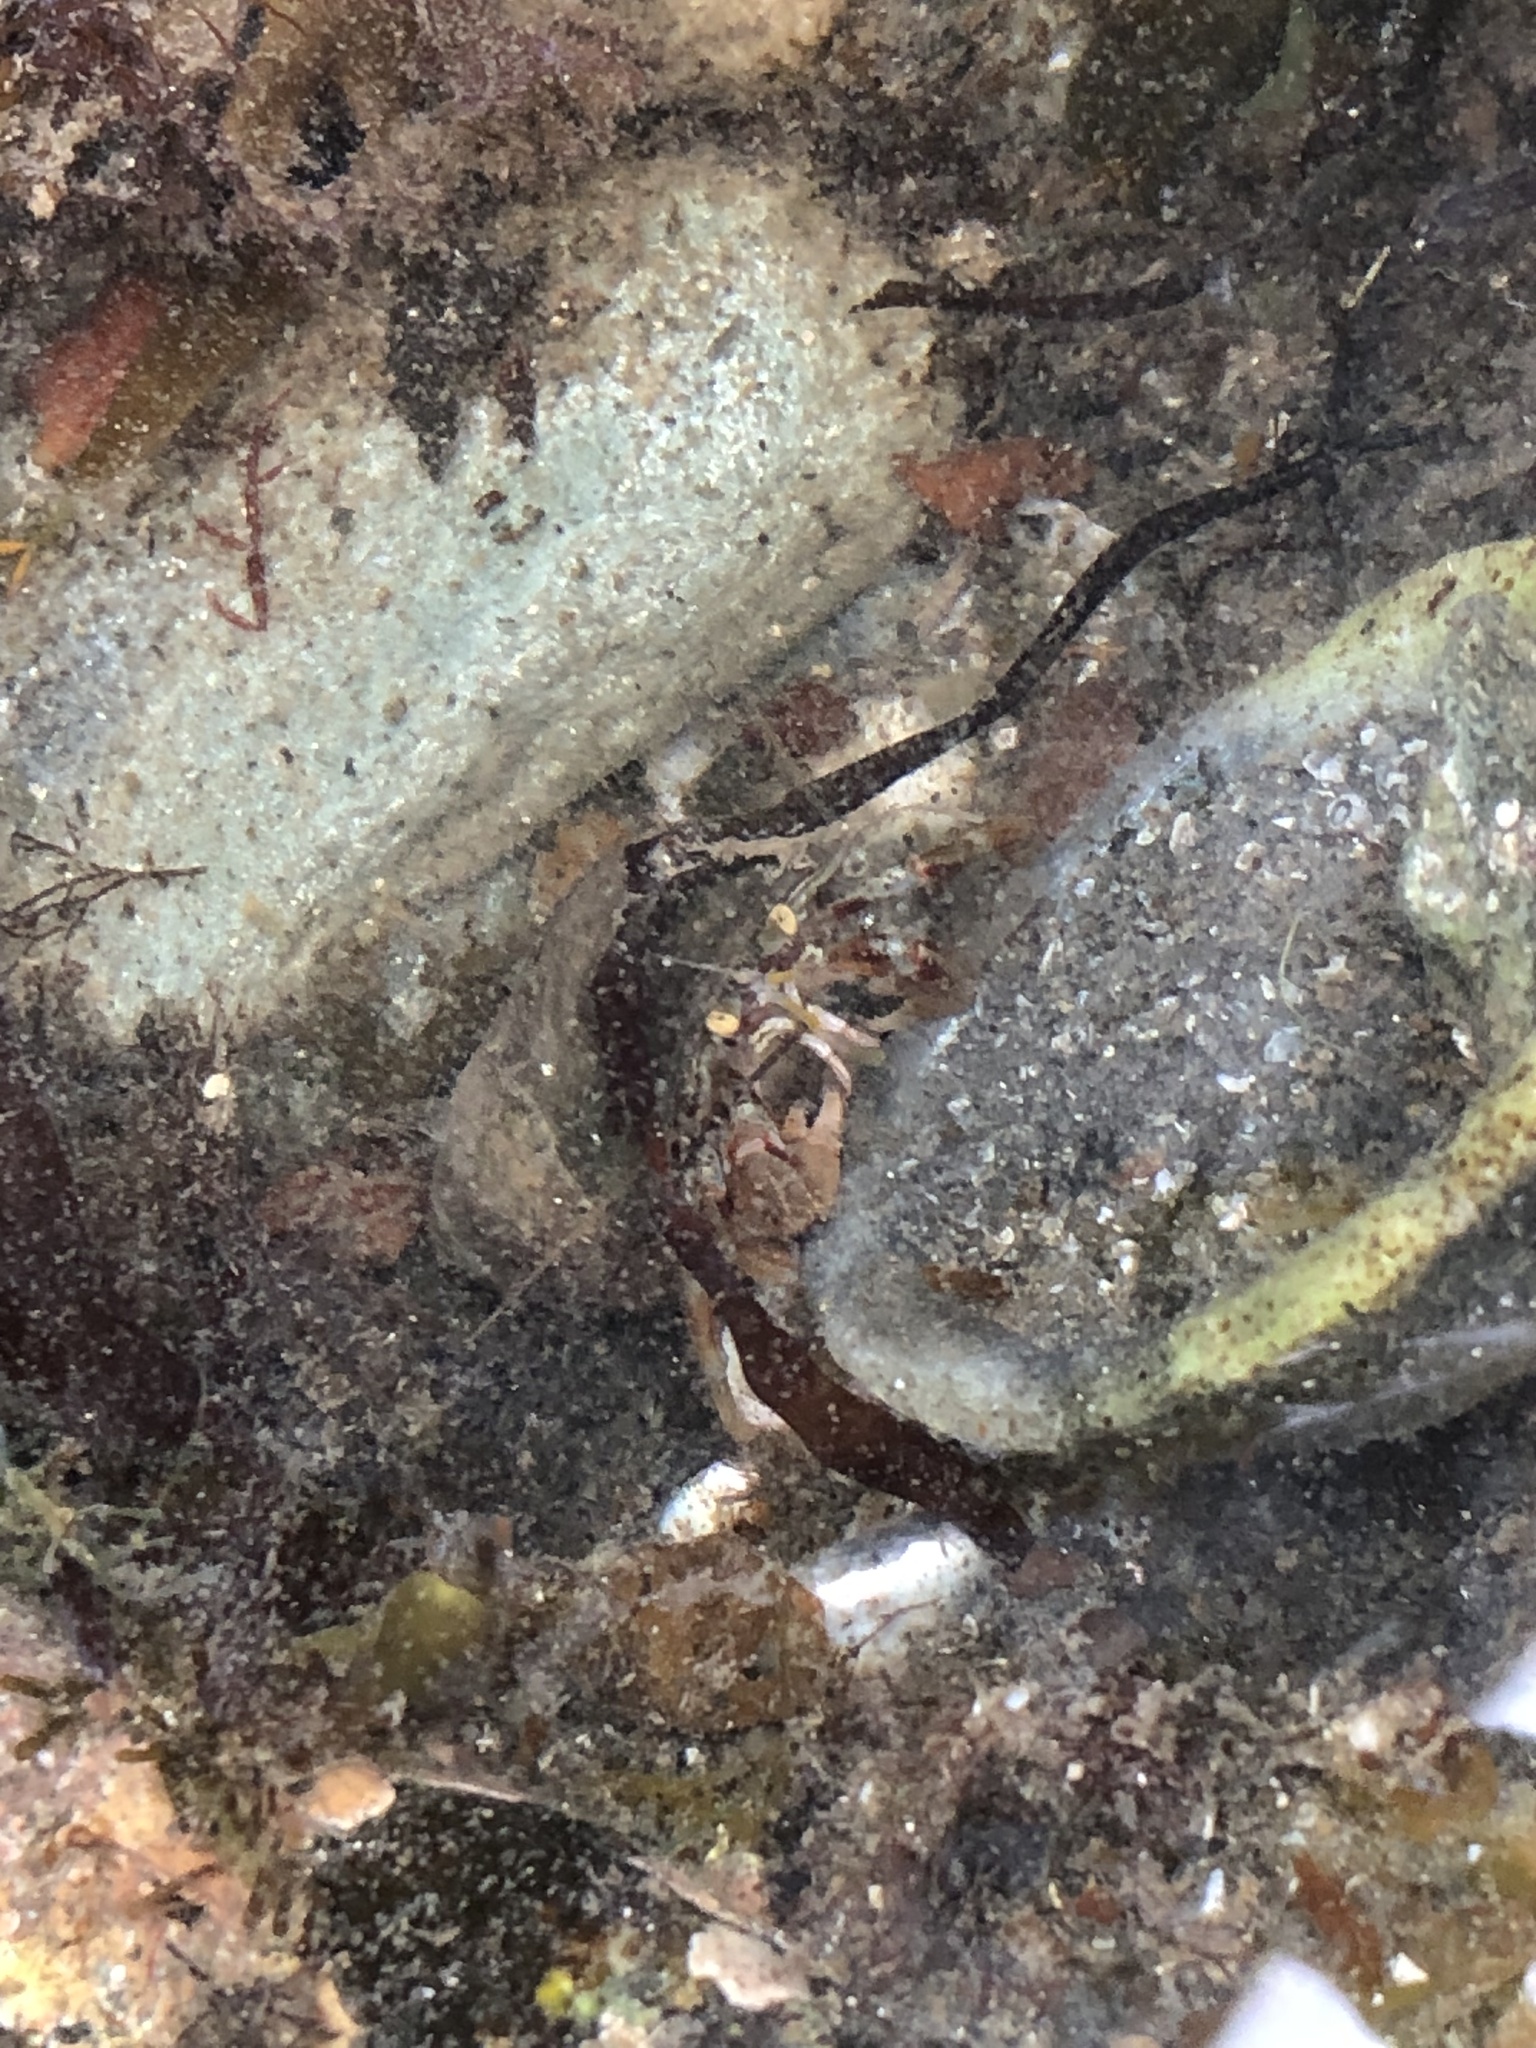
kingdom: Animalia
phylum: Arthropoda
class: Malacostraca
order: Decapoda
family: Paguridae
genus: Pagurus
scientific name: Pagurus bernhardus
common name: Hermit crab
